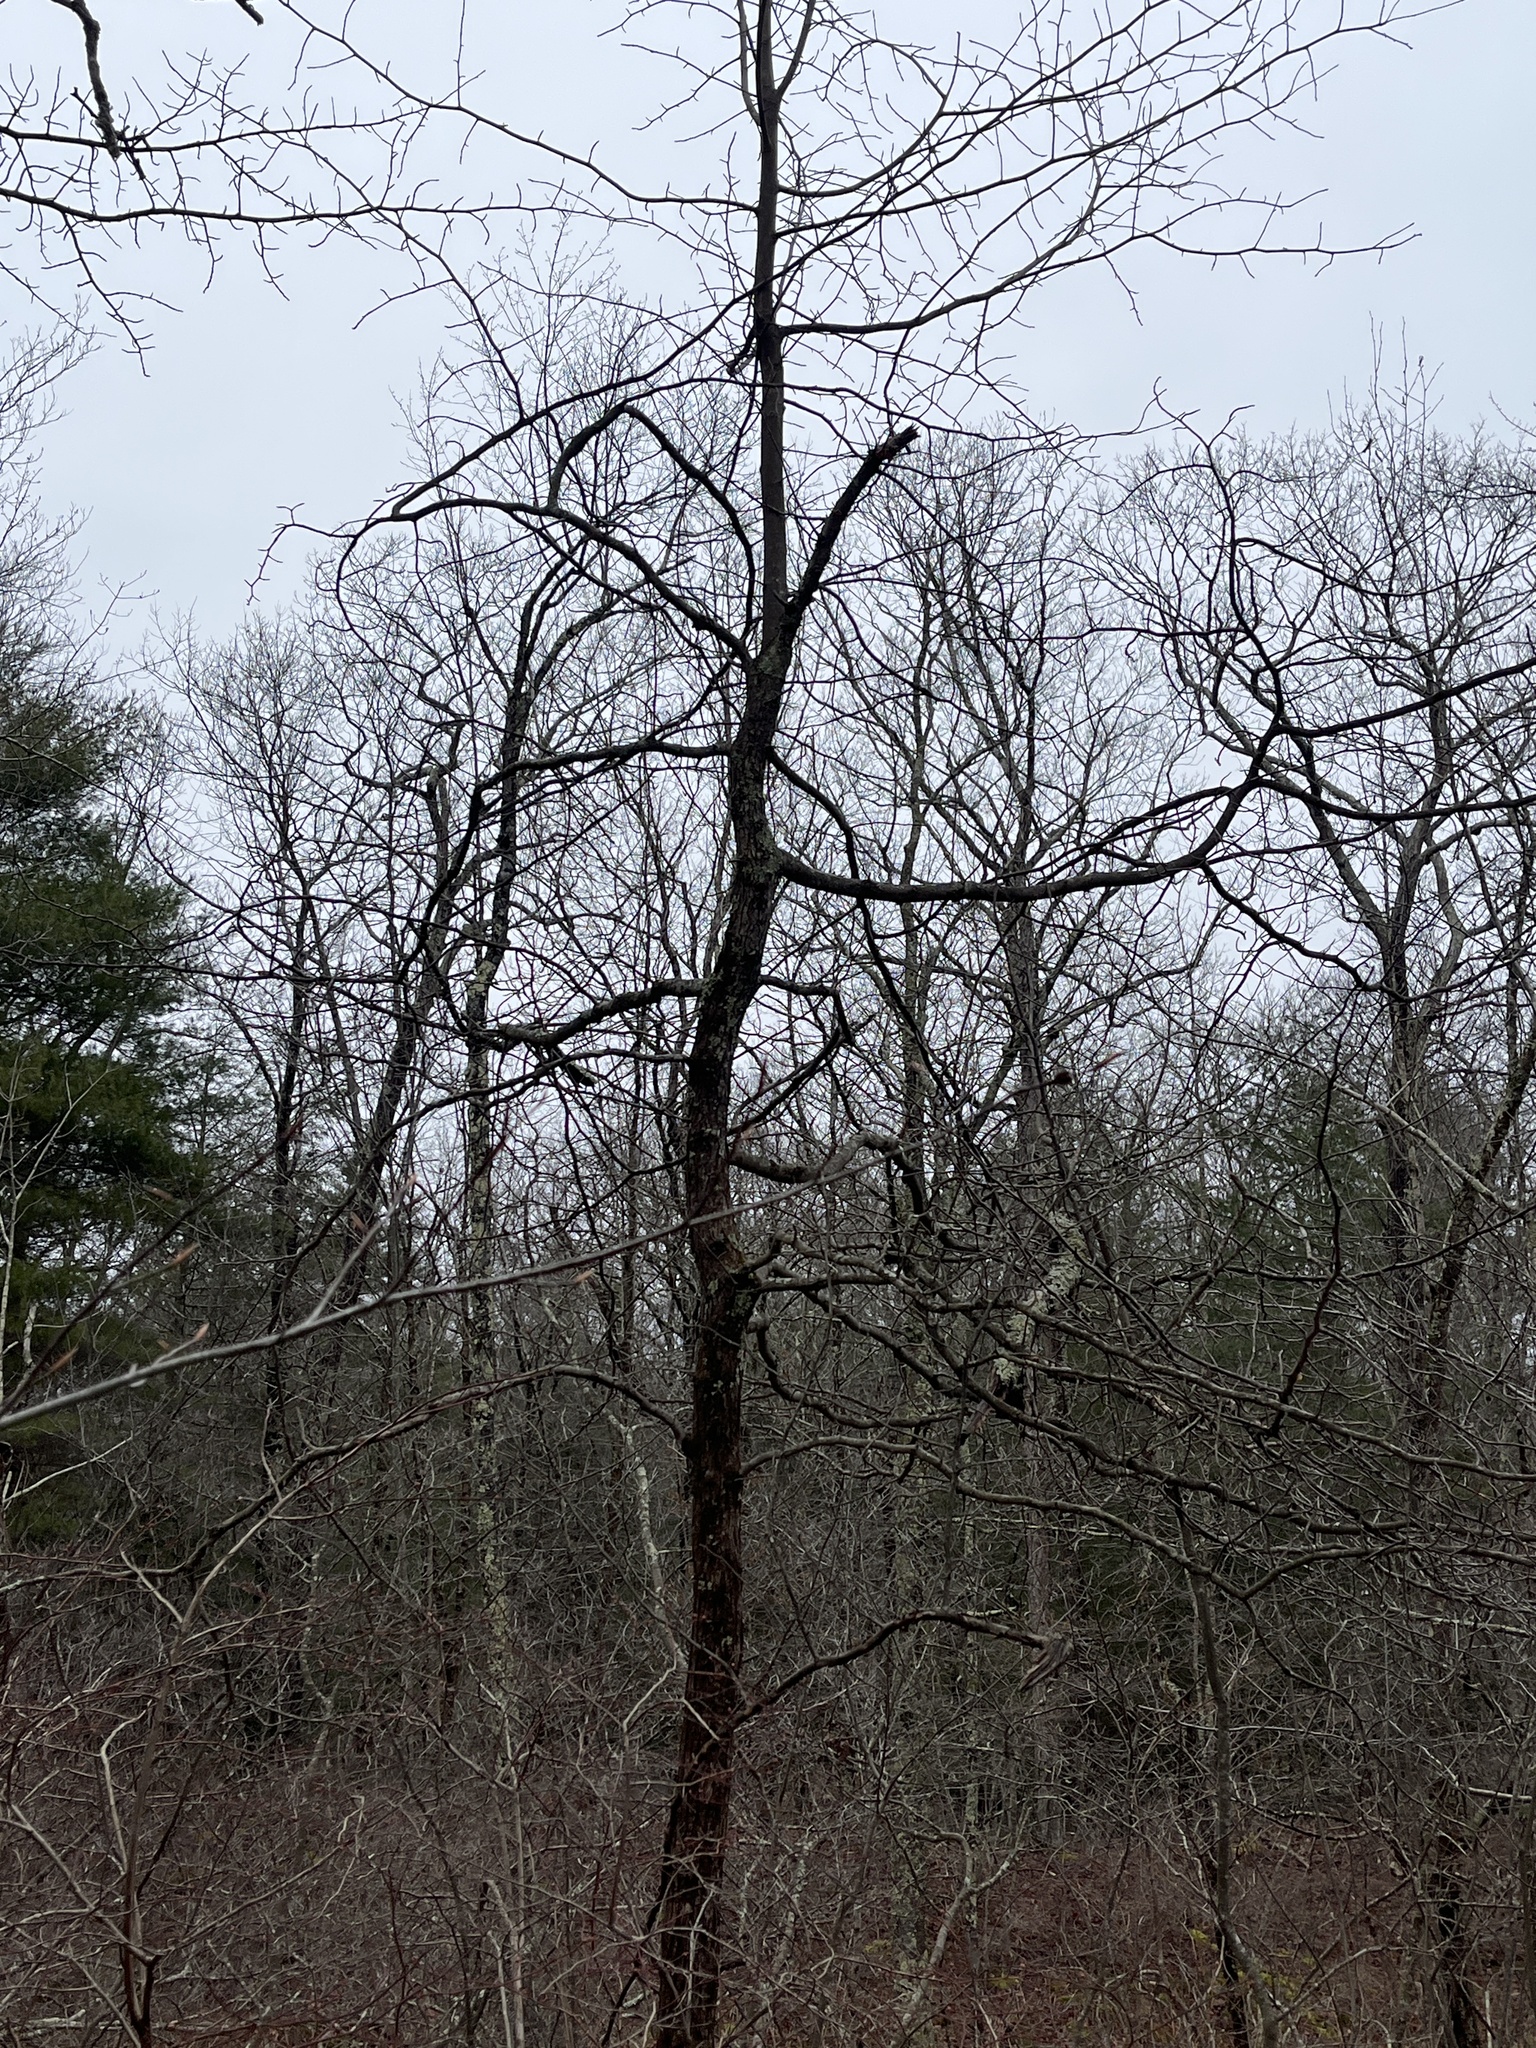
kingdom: Plantae
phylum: Tracheophyta
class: Magnoliopsida
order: Cornales
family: Nyssaceae
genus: Nyssa
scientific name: Nyssa sylvatica
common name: Black tupelo
